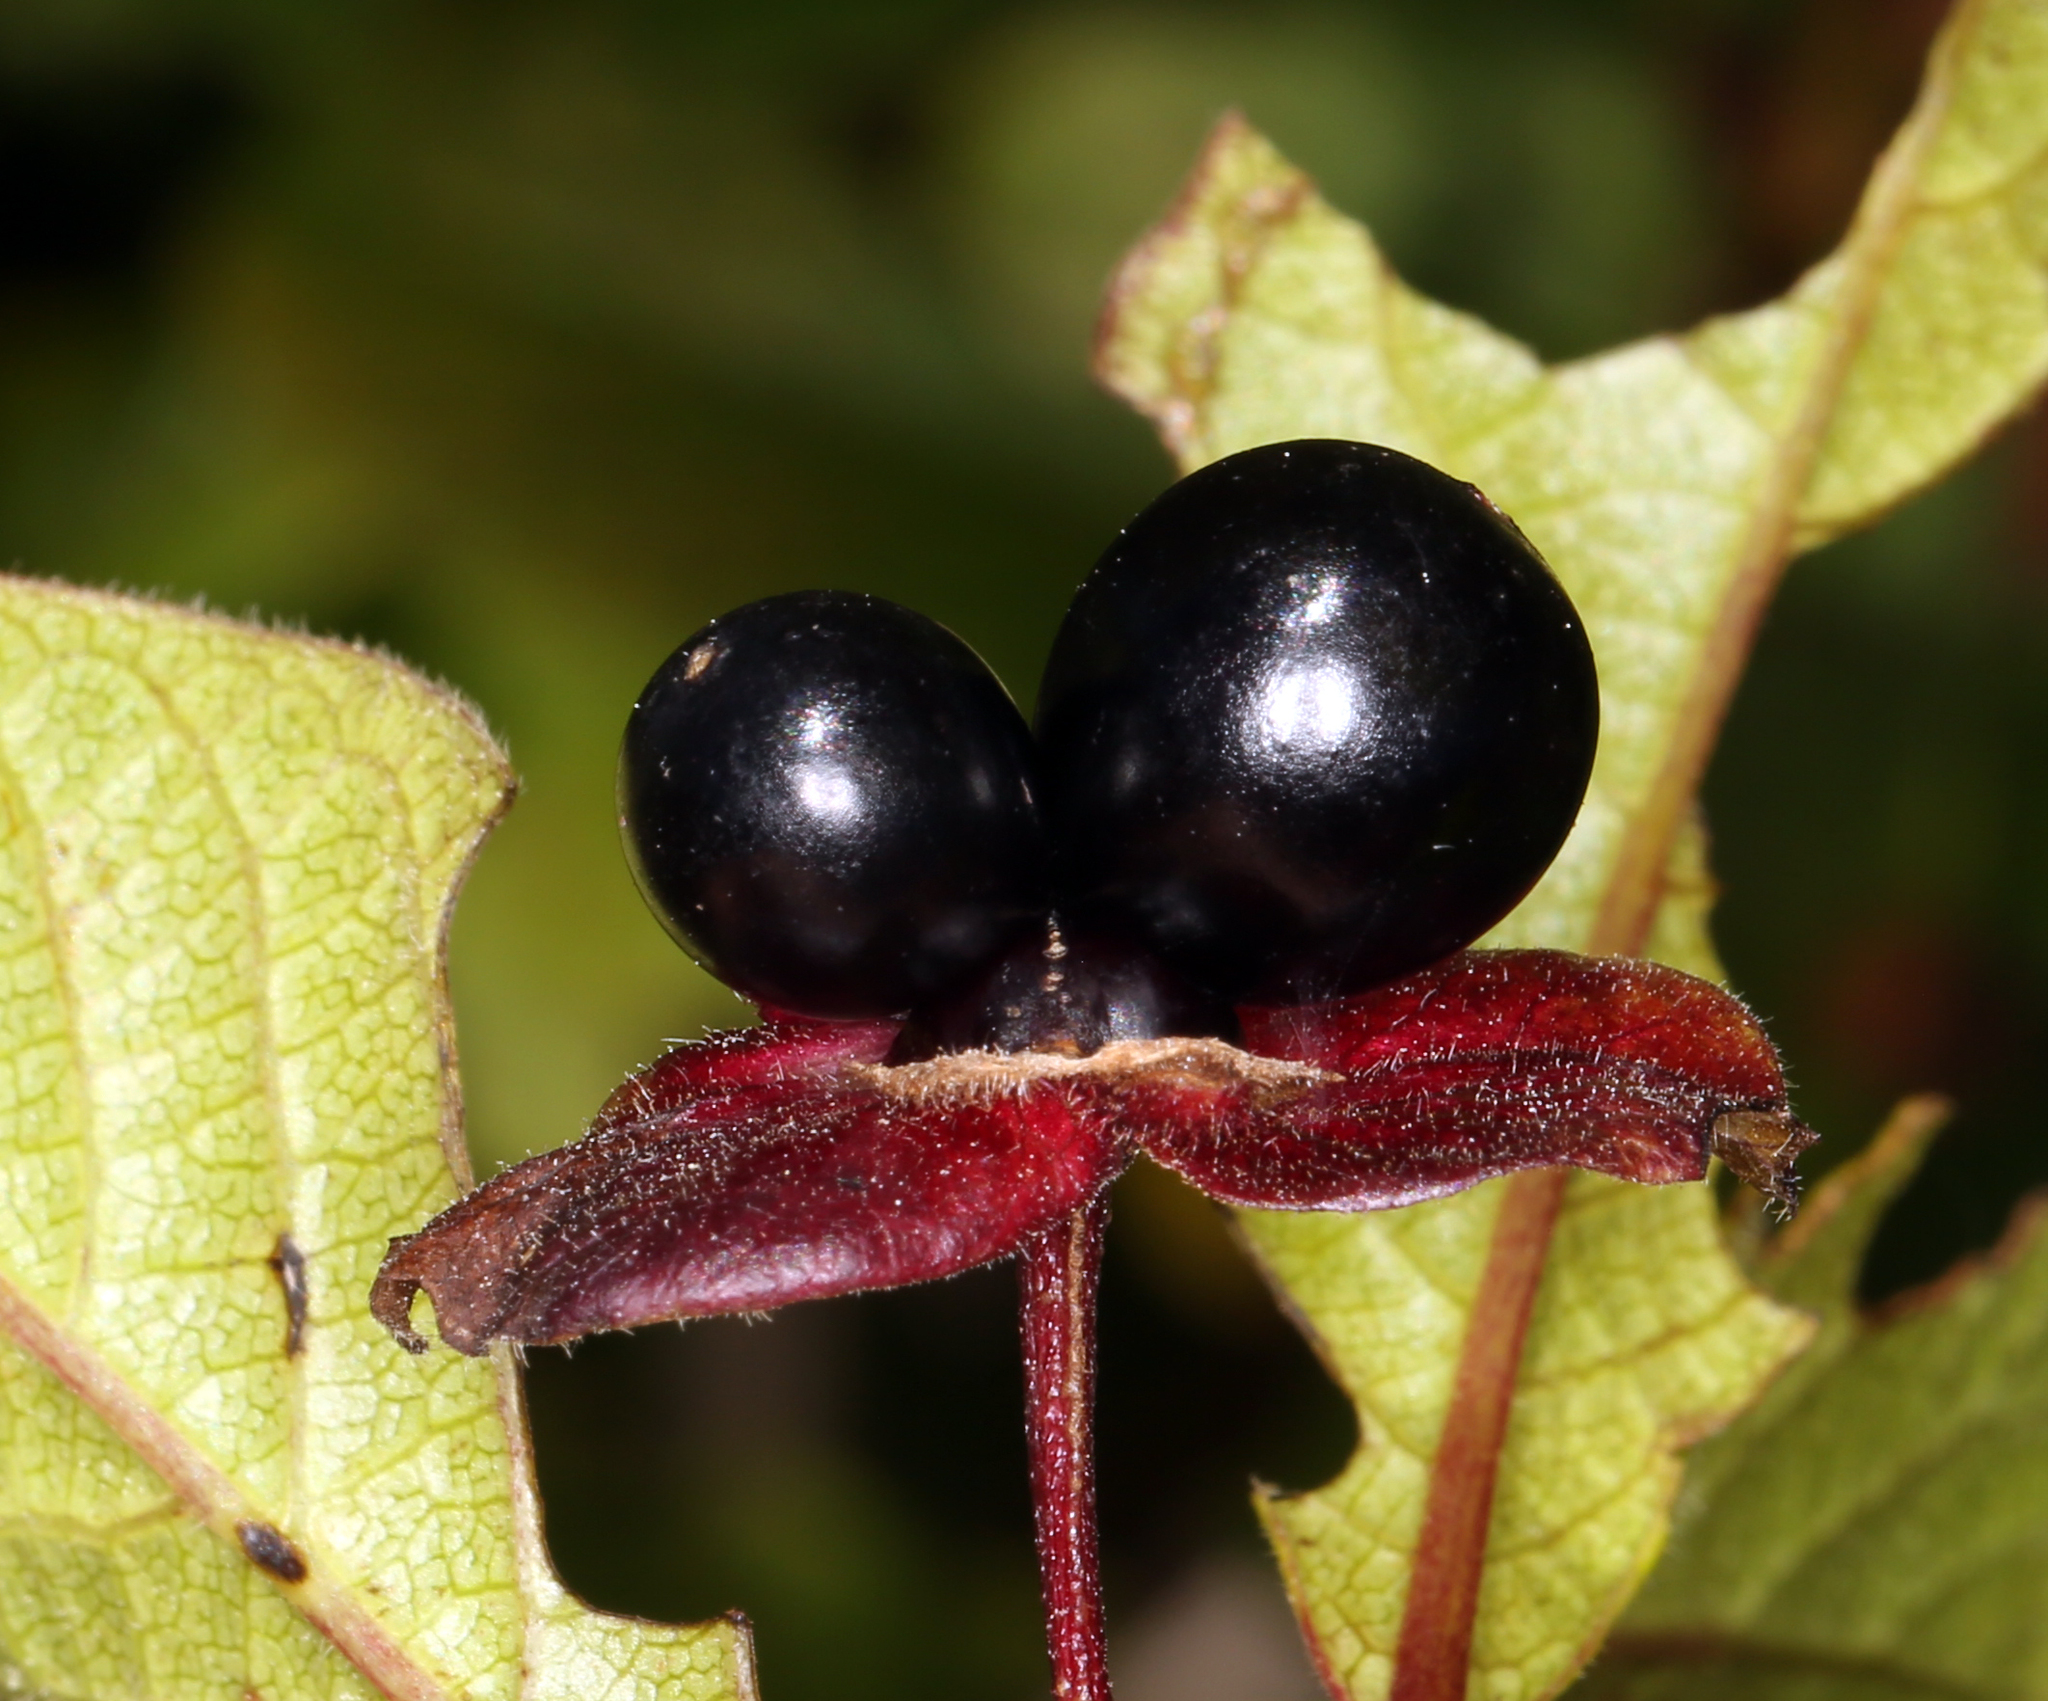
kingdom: Plantae
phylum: Tracheophyta
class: Magnoliopsida
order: Dipsacales
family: Caprifoliaceae
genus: Lonicera
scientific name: Lonicera involucrata
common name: Californian honeysuckle
